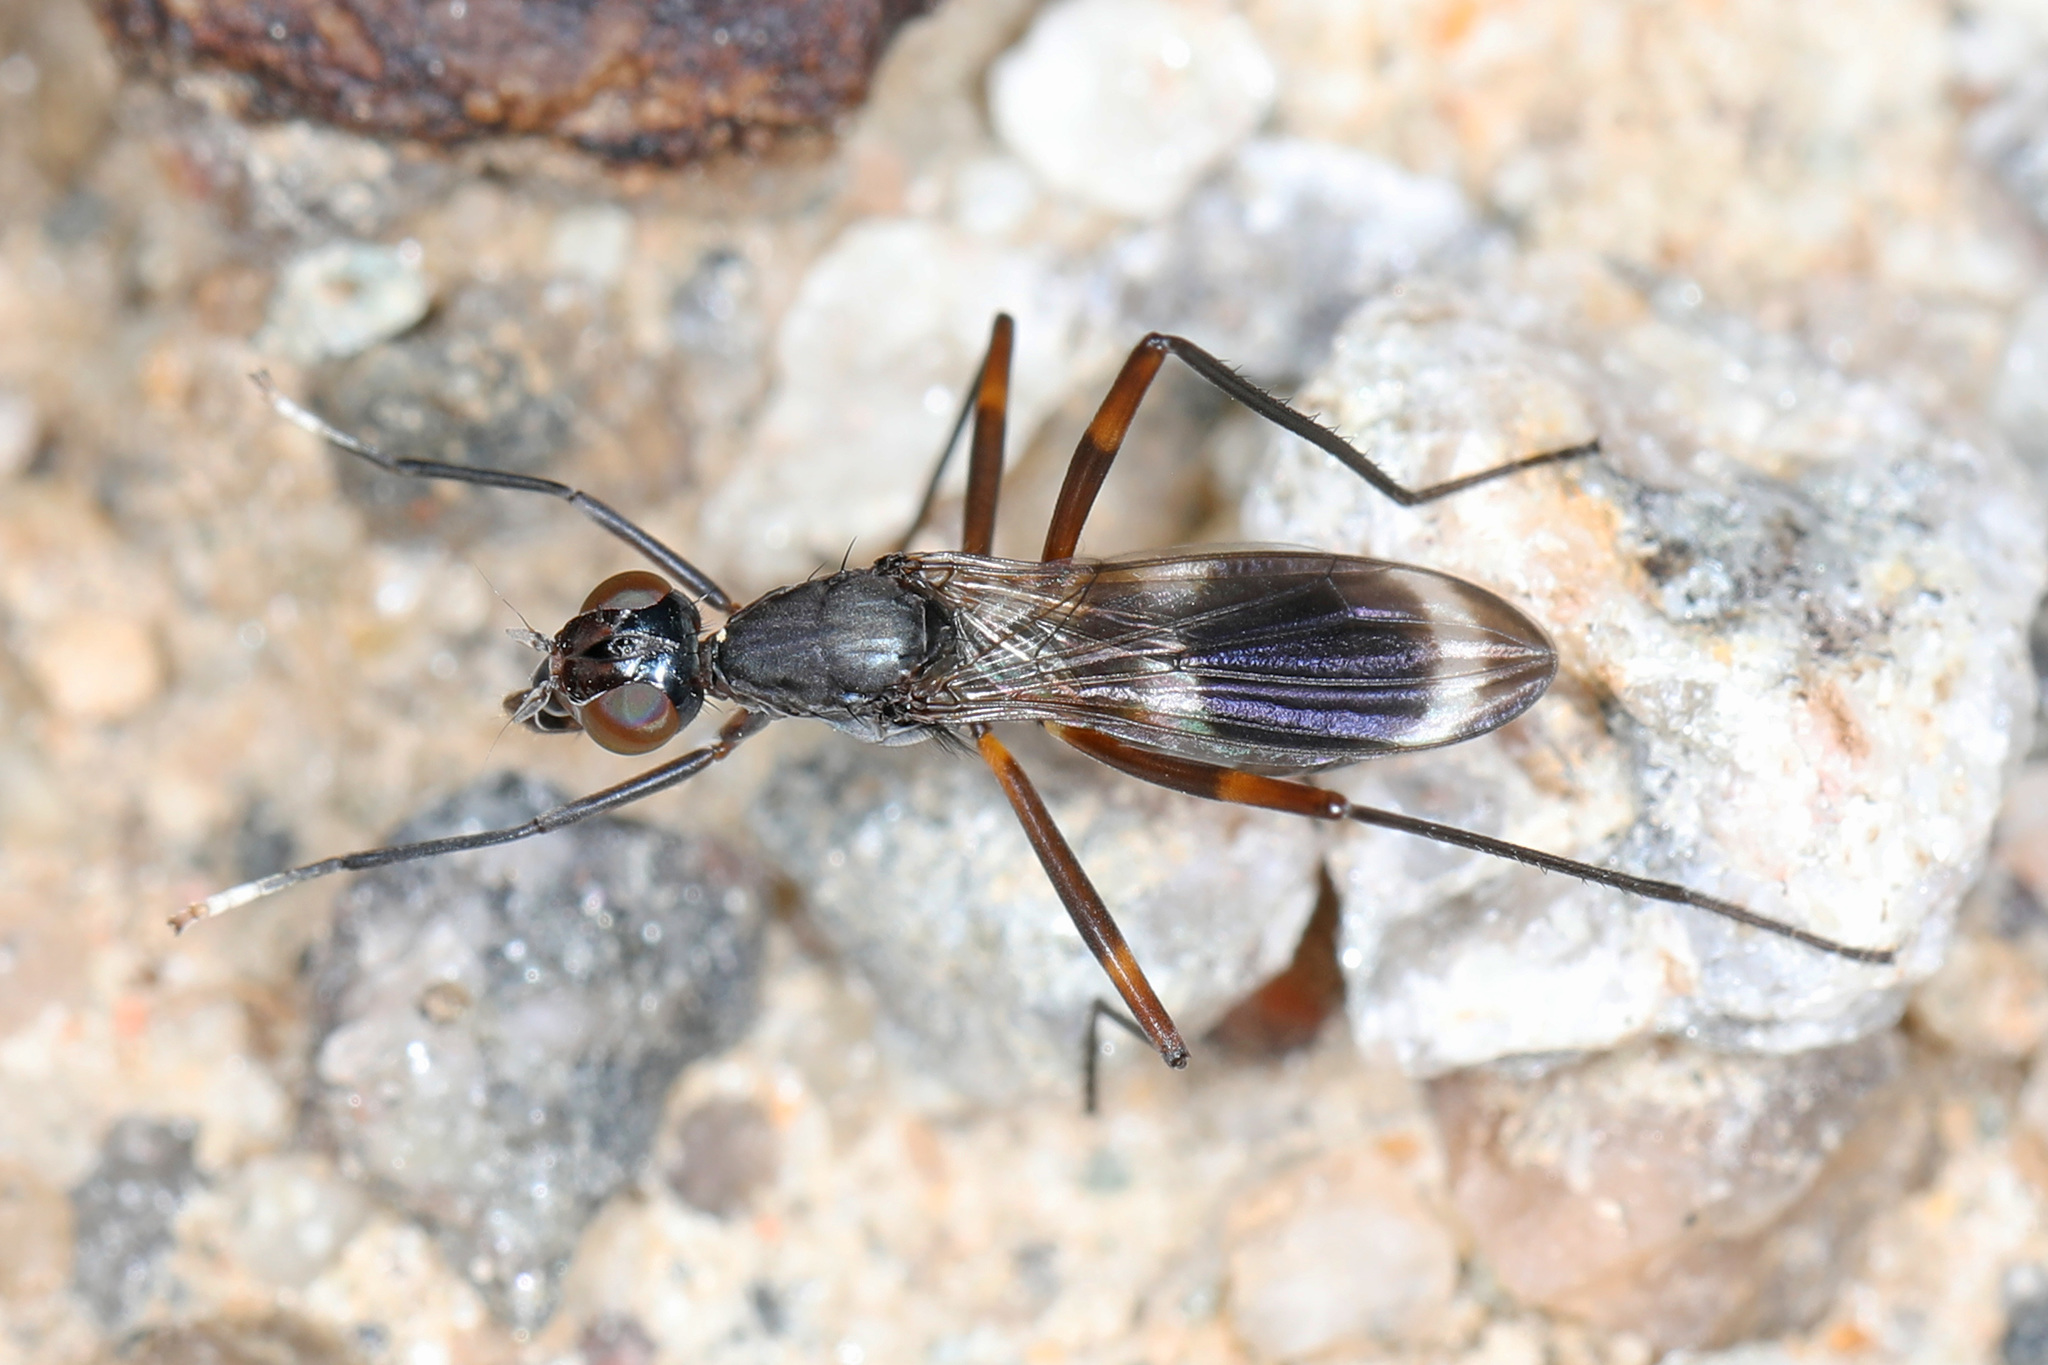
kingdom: Animalia
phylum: Arthropoda
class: Insecta
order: Diptera
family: Micropezidae
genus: Taeniaptera
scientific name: Taeniaptera trivittata
